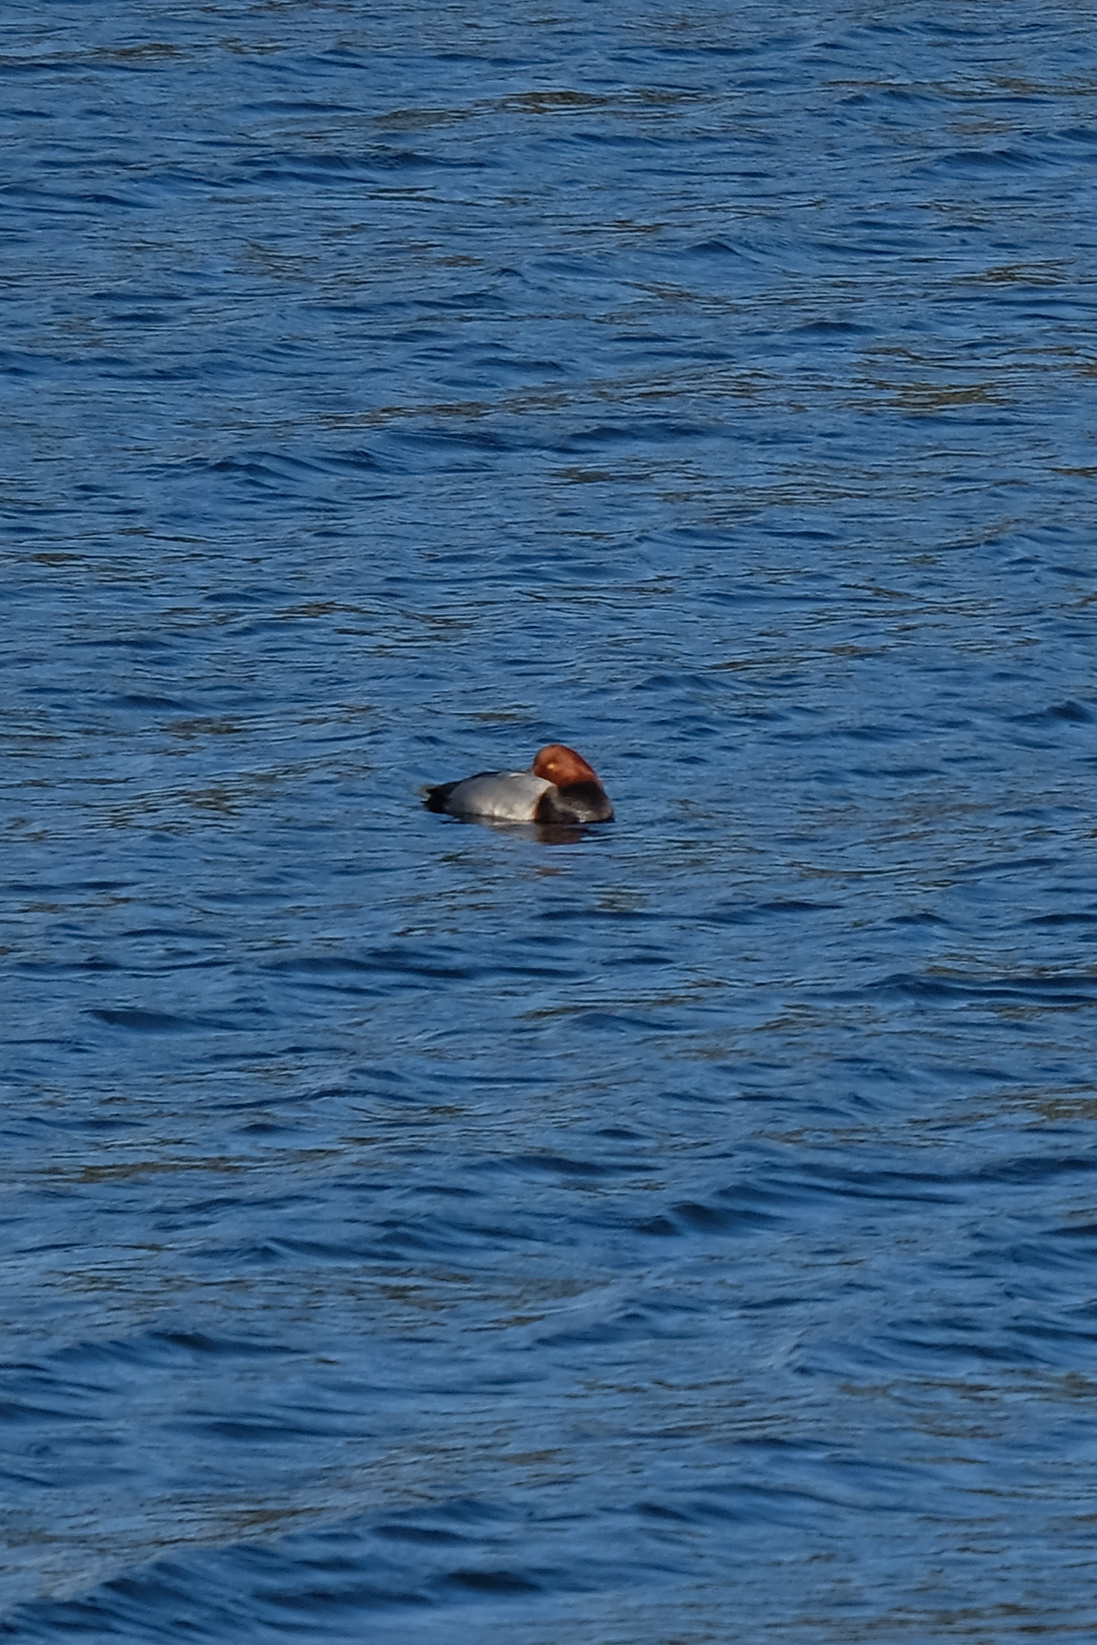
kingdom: Animalia
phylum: Chordata
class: Aves
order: Anseriformes
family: Anatidae
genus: Aythya
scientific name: Aythya americana
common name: Redhead
